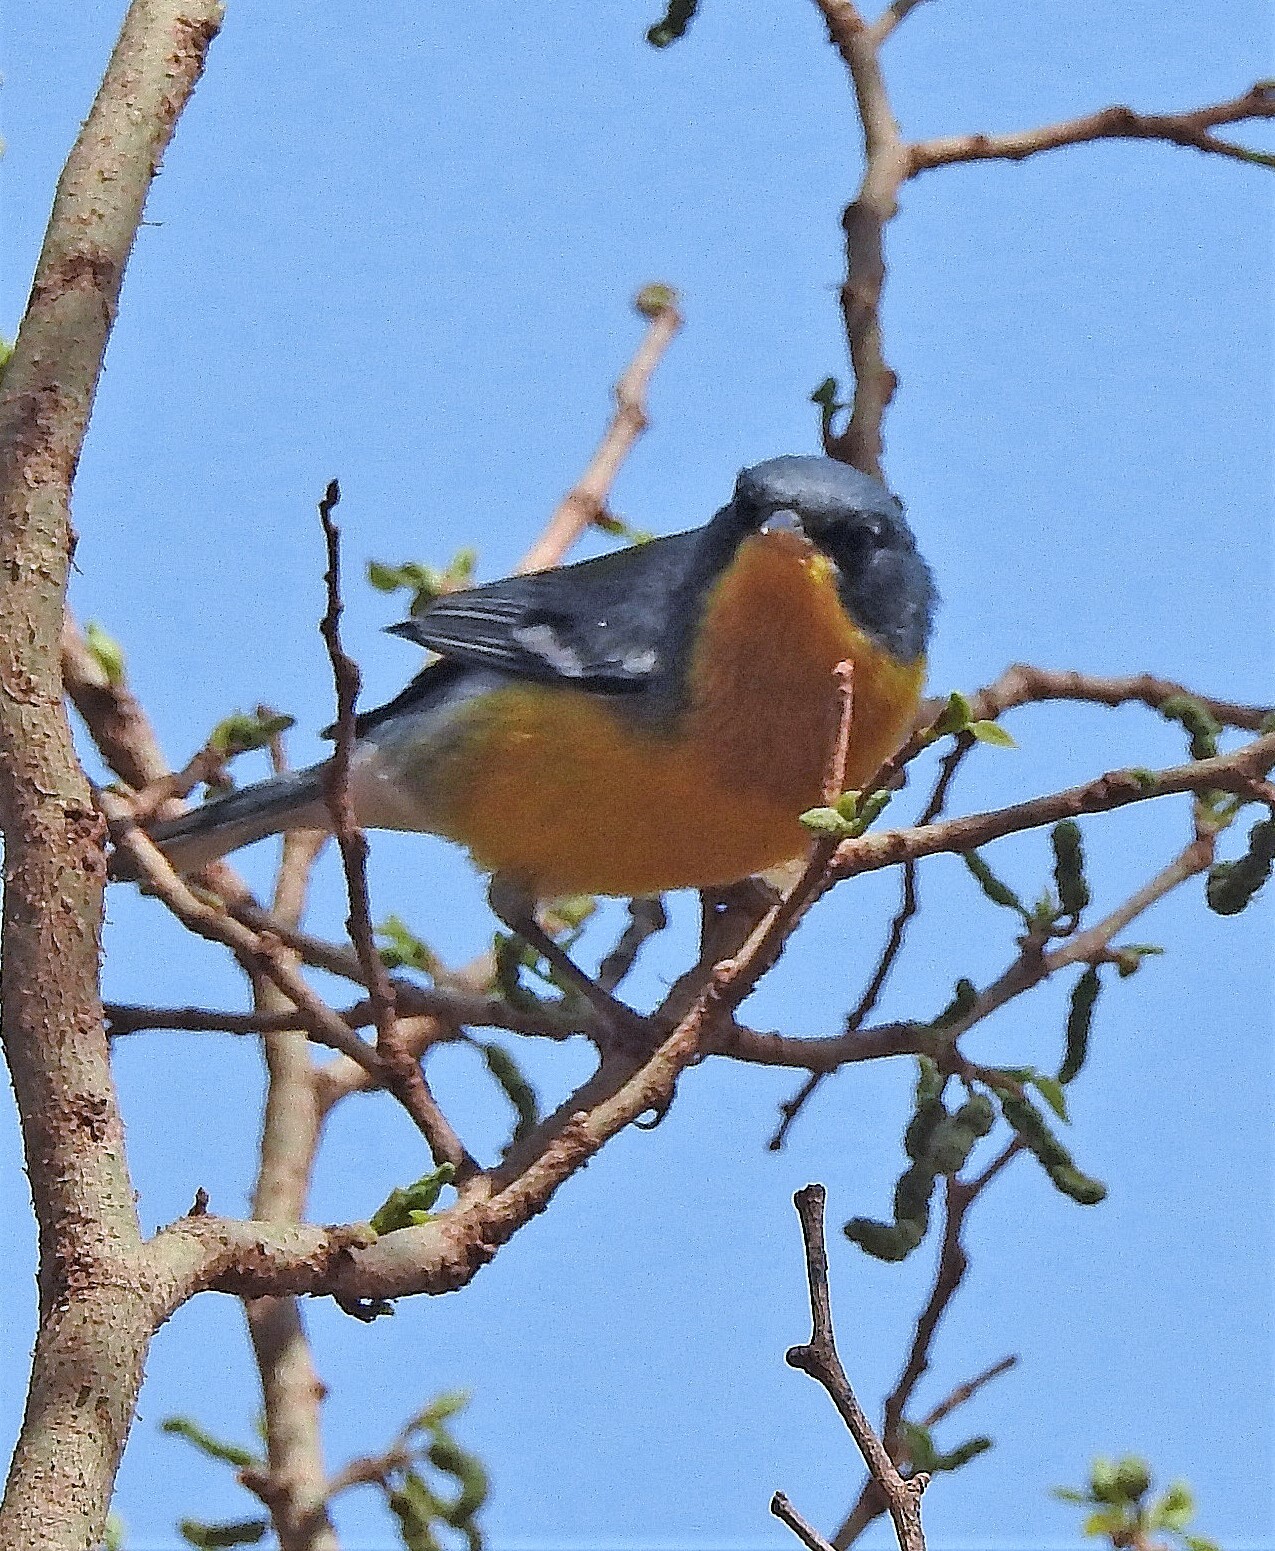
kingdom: Animalia
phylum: Chordata
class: Aves
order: Passeriformes
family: Parulidae
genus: Setophaga
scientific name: Setophaga pitiayumi
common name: Tropical parula
